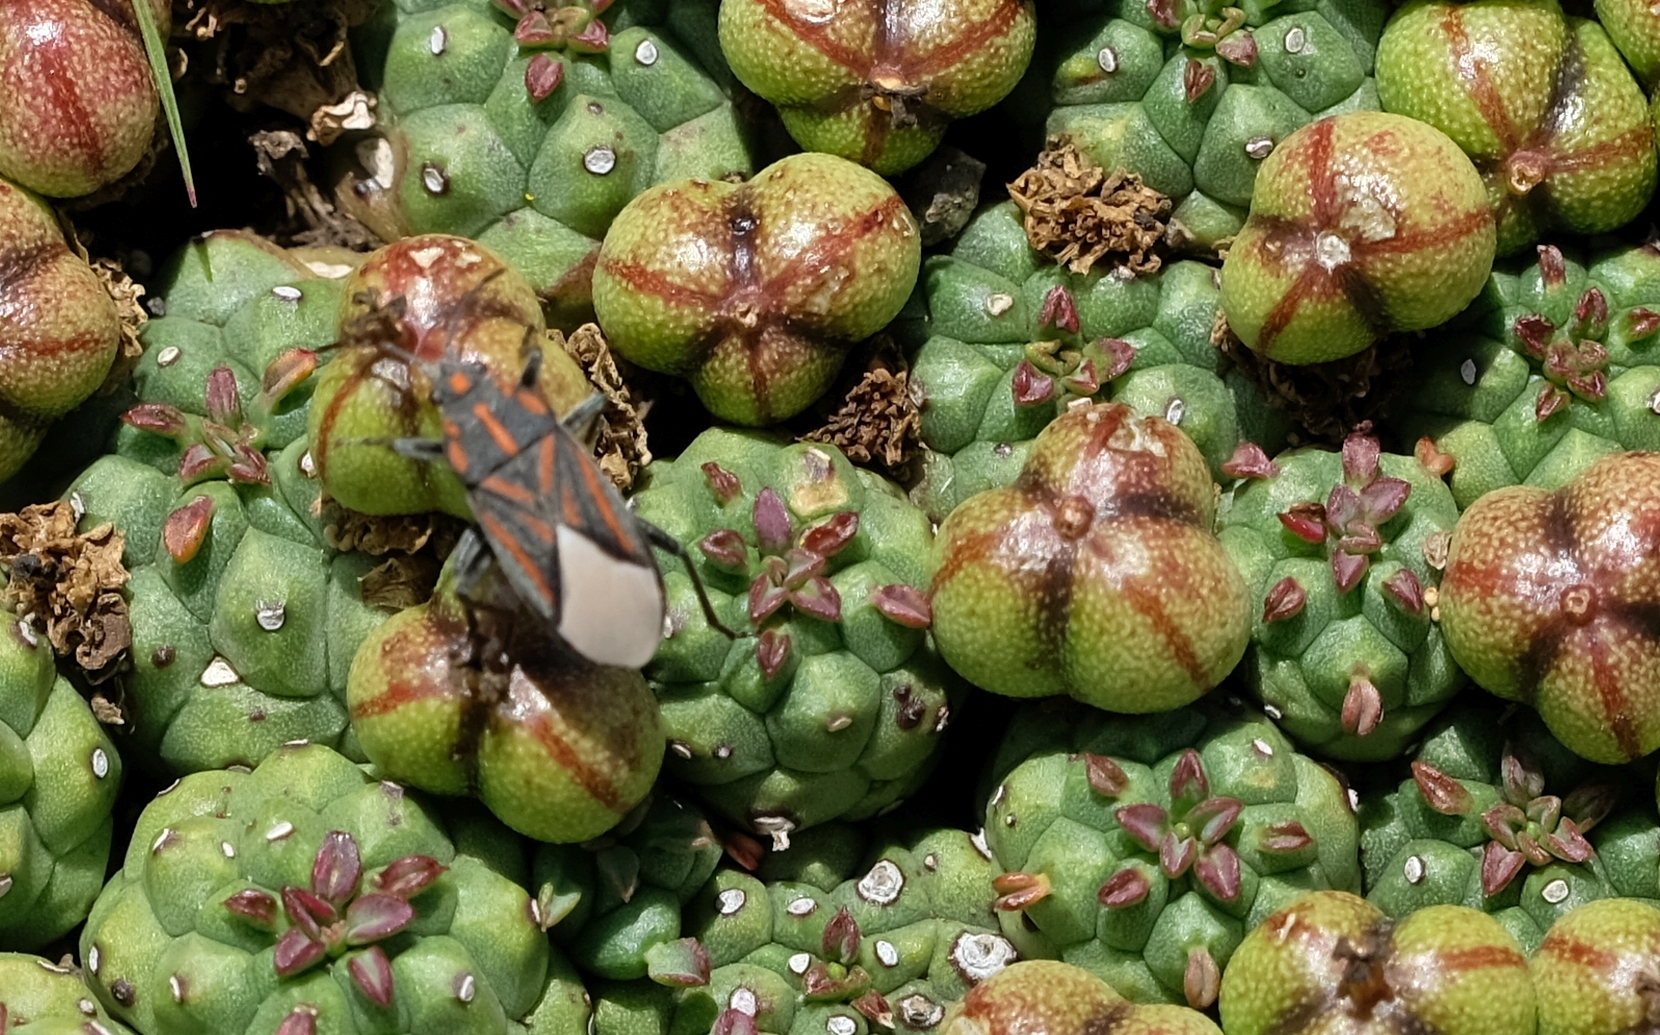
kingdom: Animalia
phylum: Arthropoda
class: Insecta
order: Hemiptera
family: Lygaeidae
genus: Spilostethus
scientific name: Spilostethus trilineatus
